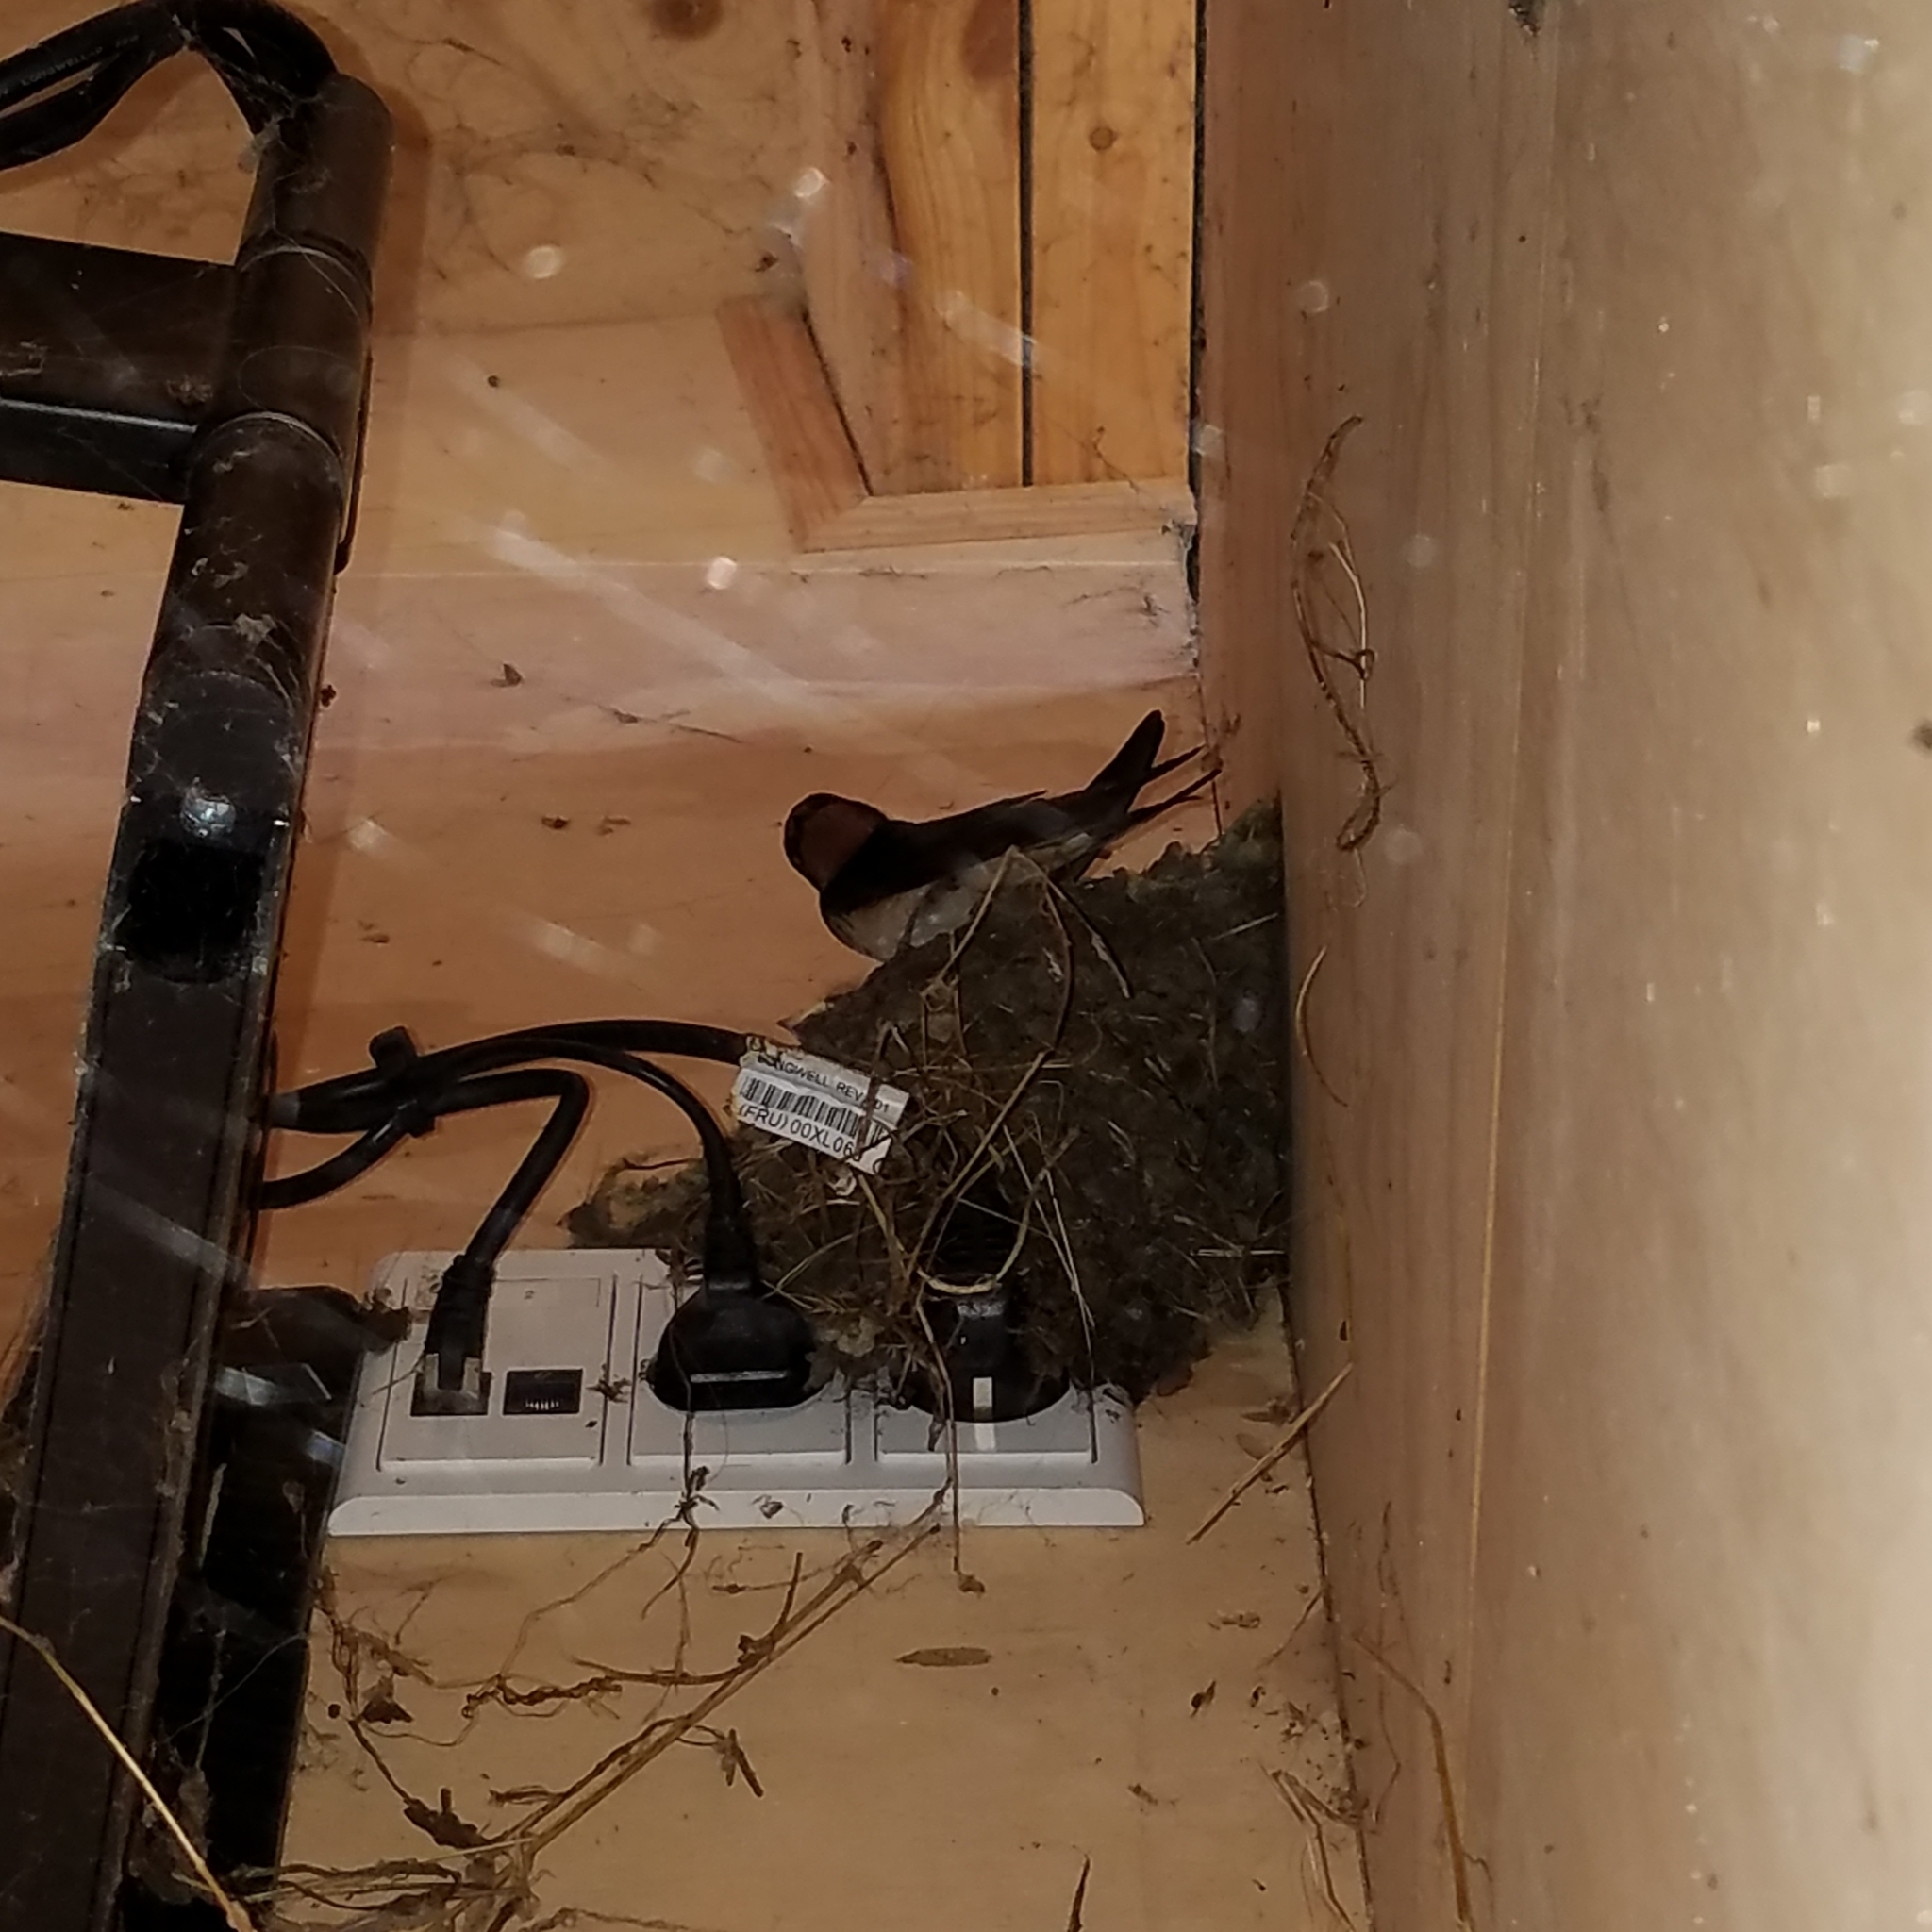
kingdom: Animalia
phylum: Chordata
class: Aves
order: Passeriformes
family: Hirundinidae
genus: Hirundo
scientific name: Hirundo rustica
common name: Barn swallow
